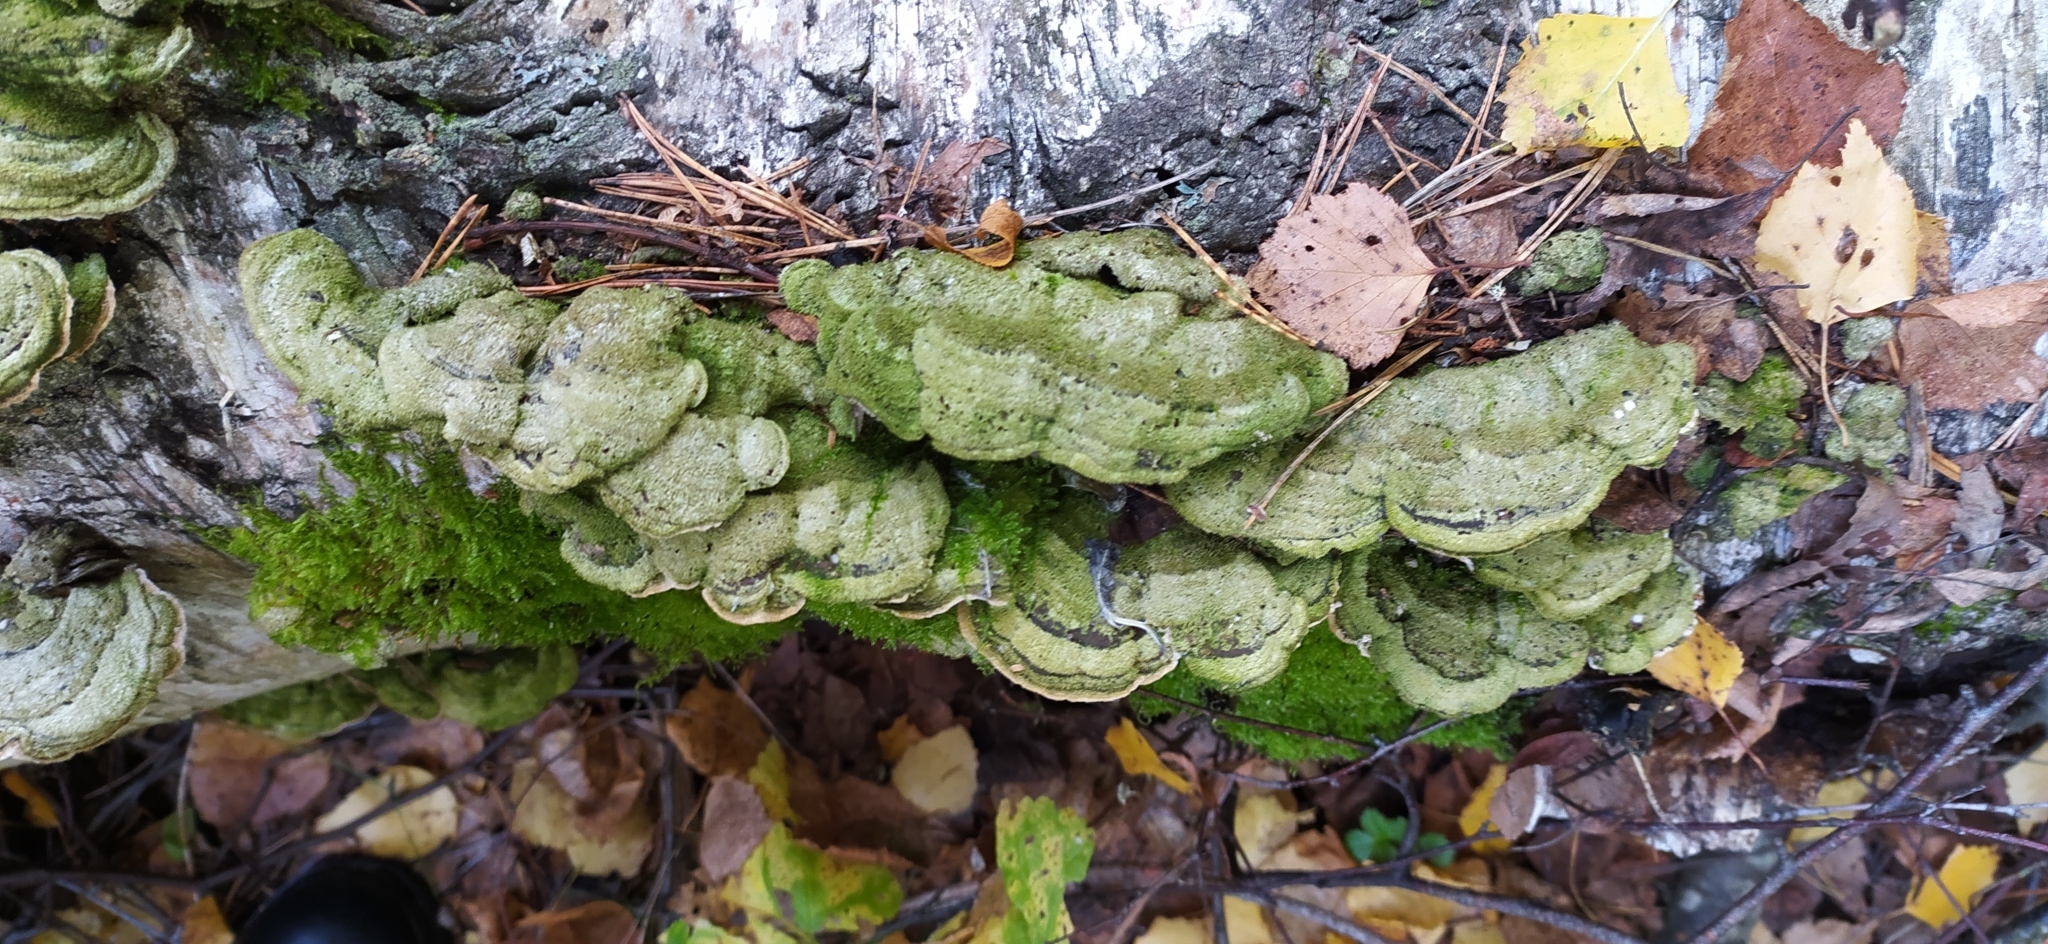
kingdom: Fungi
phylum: Basidiomycota
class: Agaricomycetes
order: Polyporales
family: Cerrenaceae
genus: Cerrena
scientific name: Cerrena unicolor
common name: Mossy maze polypore
